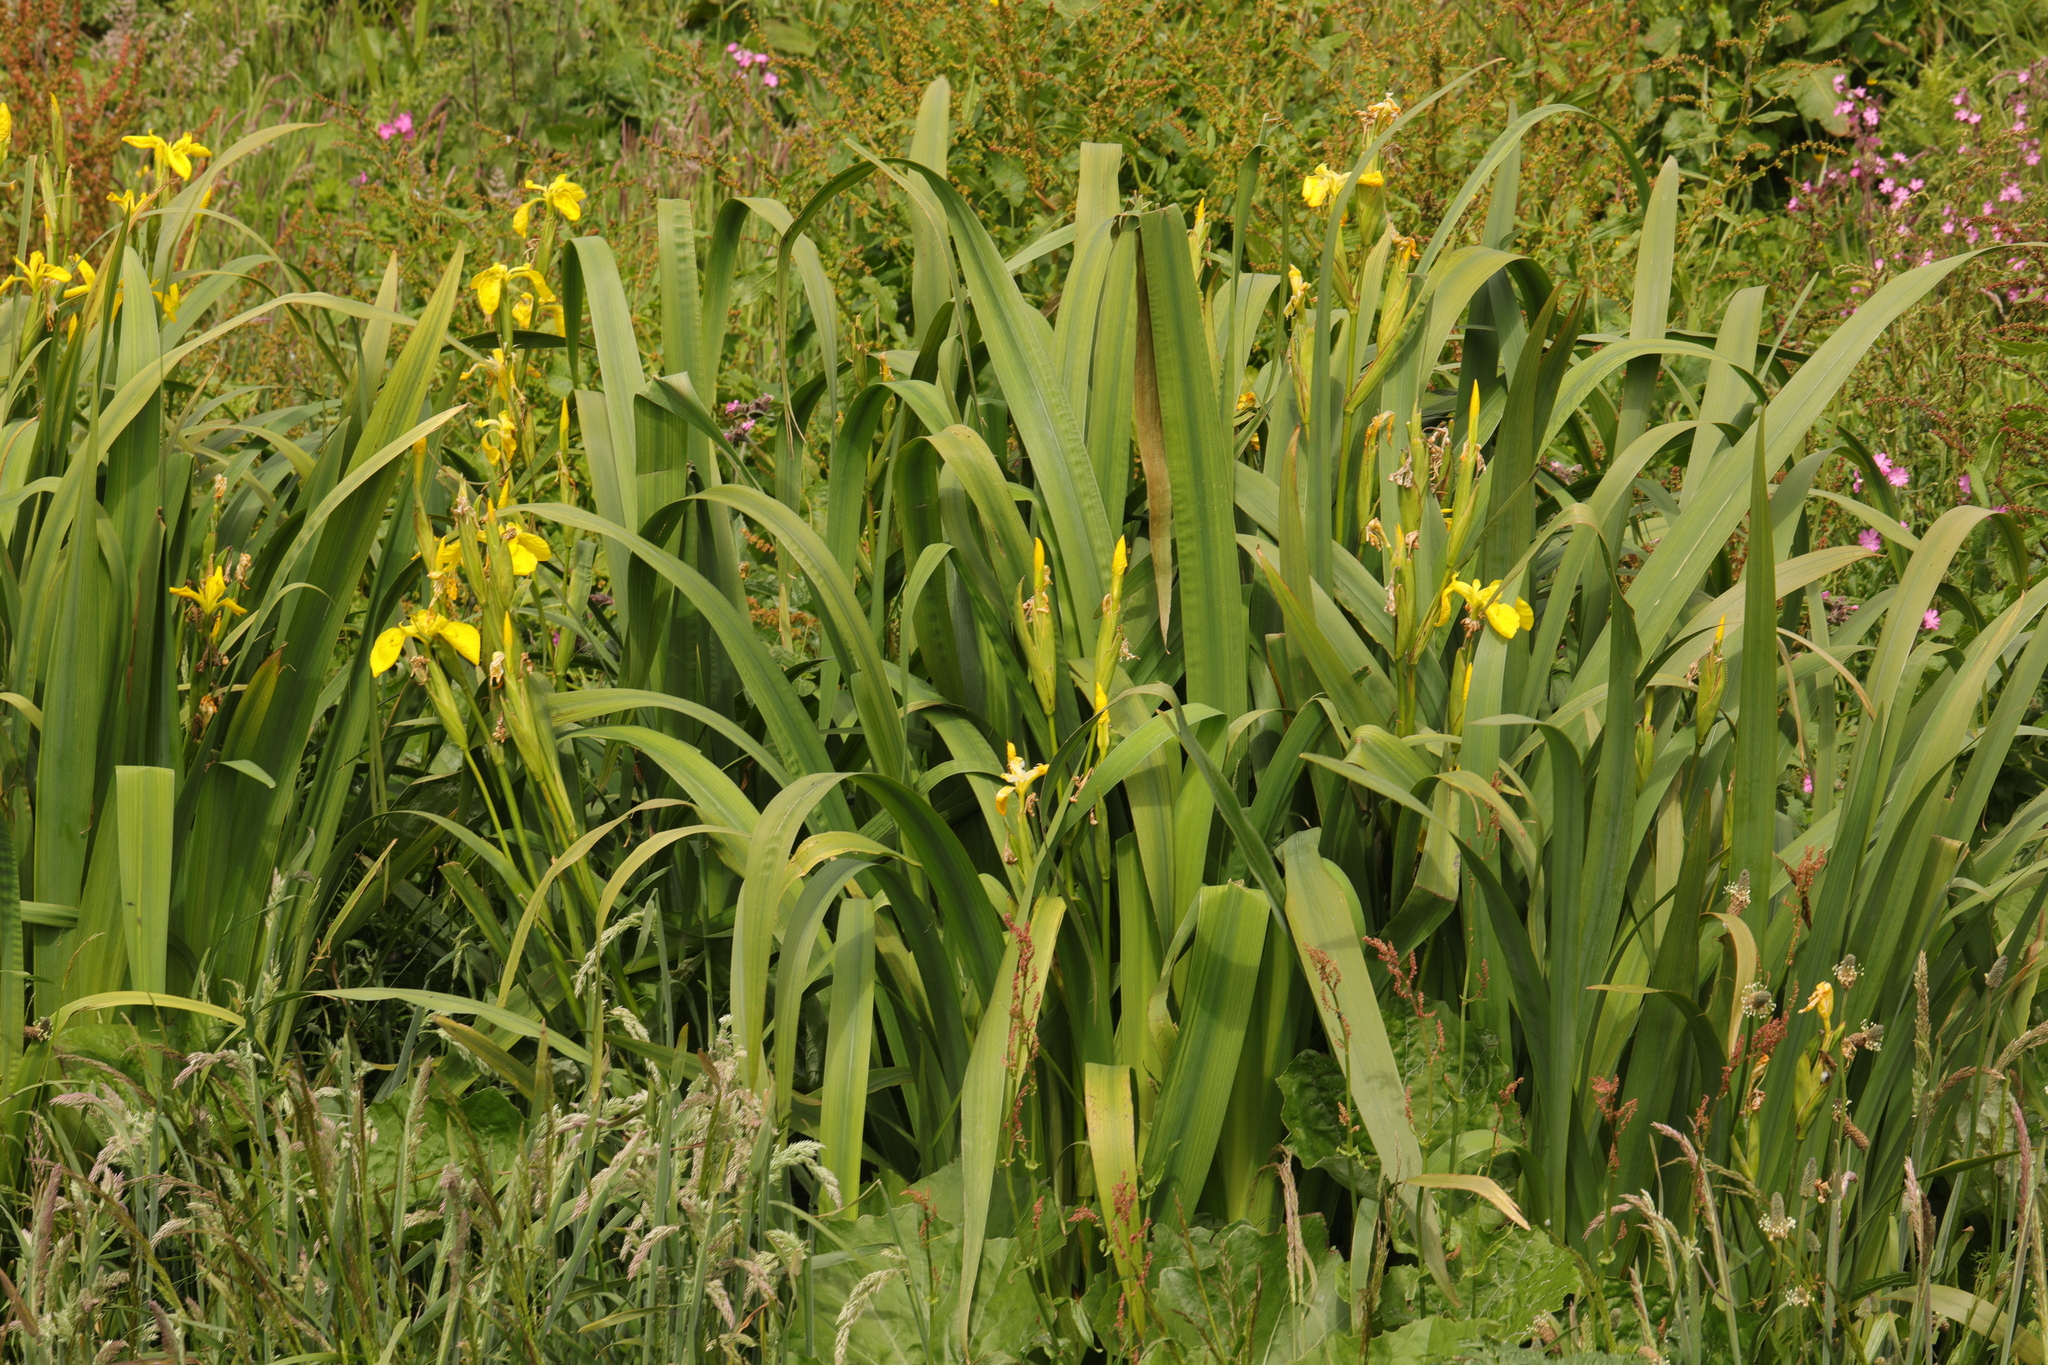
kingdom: Plantae
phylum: Tracheophyta
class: Liliopsida
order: Asparagales
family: Iridaceae
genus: Iris
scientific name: Iris pseudacorus
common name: Yellow flag
